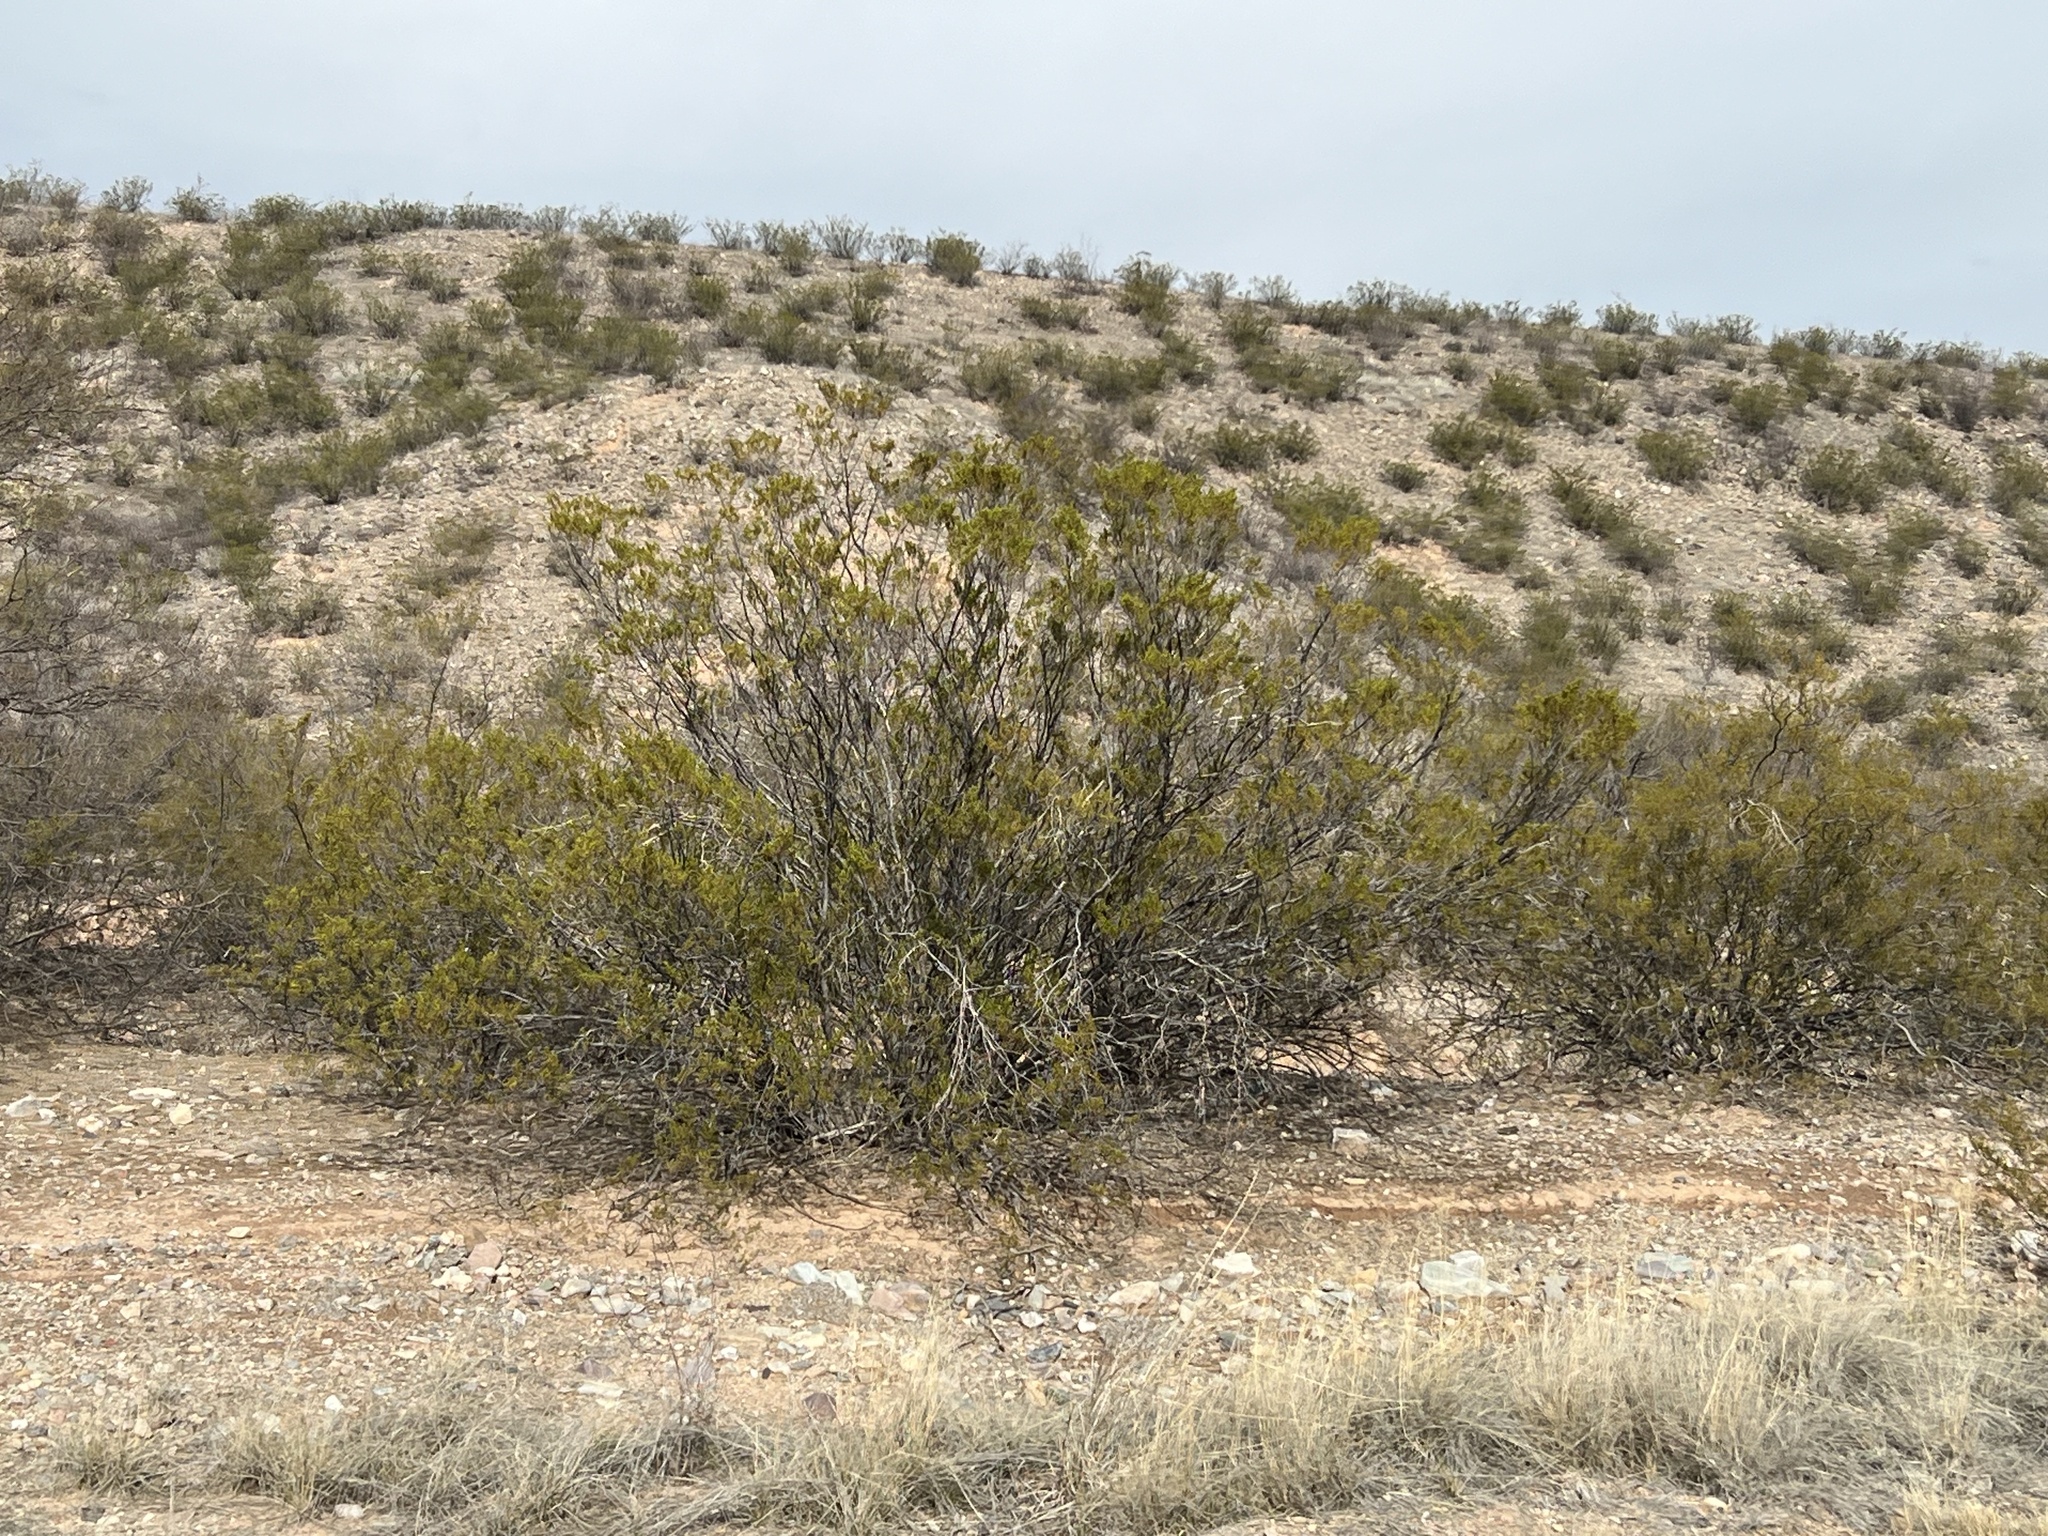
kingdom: Plantae
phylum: Tracheophyta
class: Magnoliopsida
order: Zygophyllales
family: Zygophyllaceae
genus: Larrea
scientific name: Larrea tridentata
